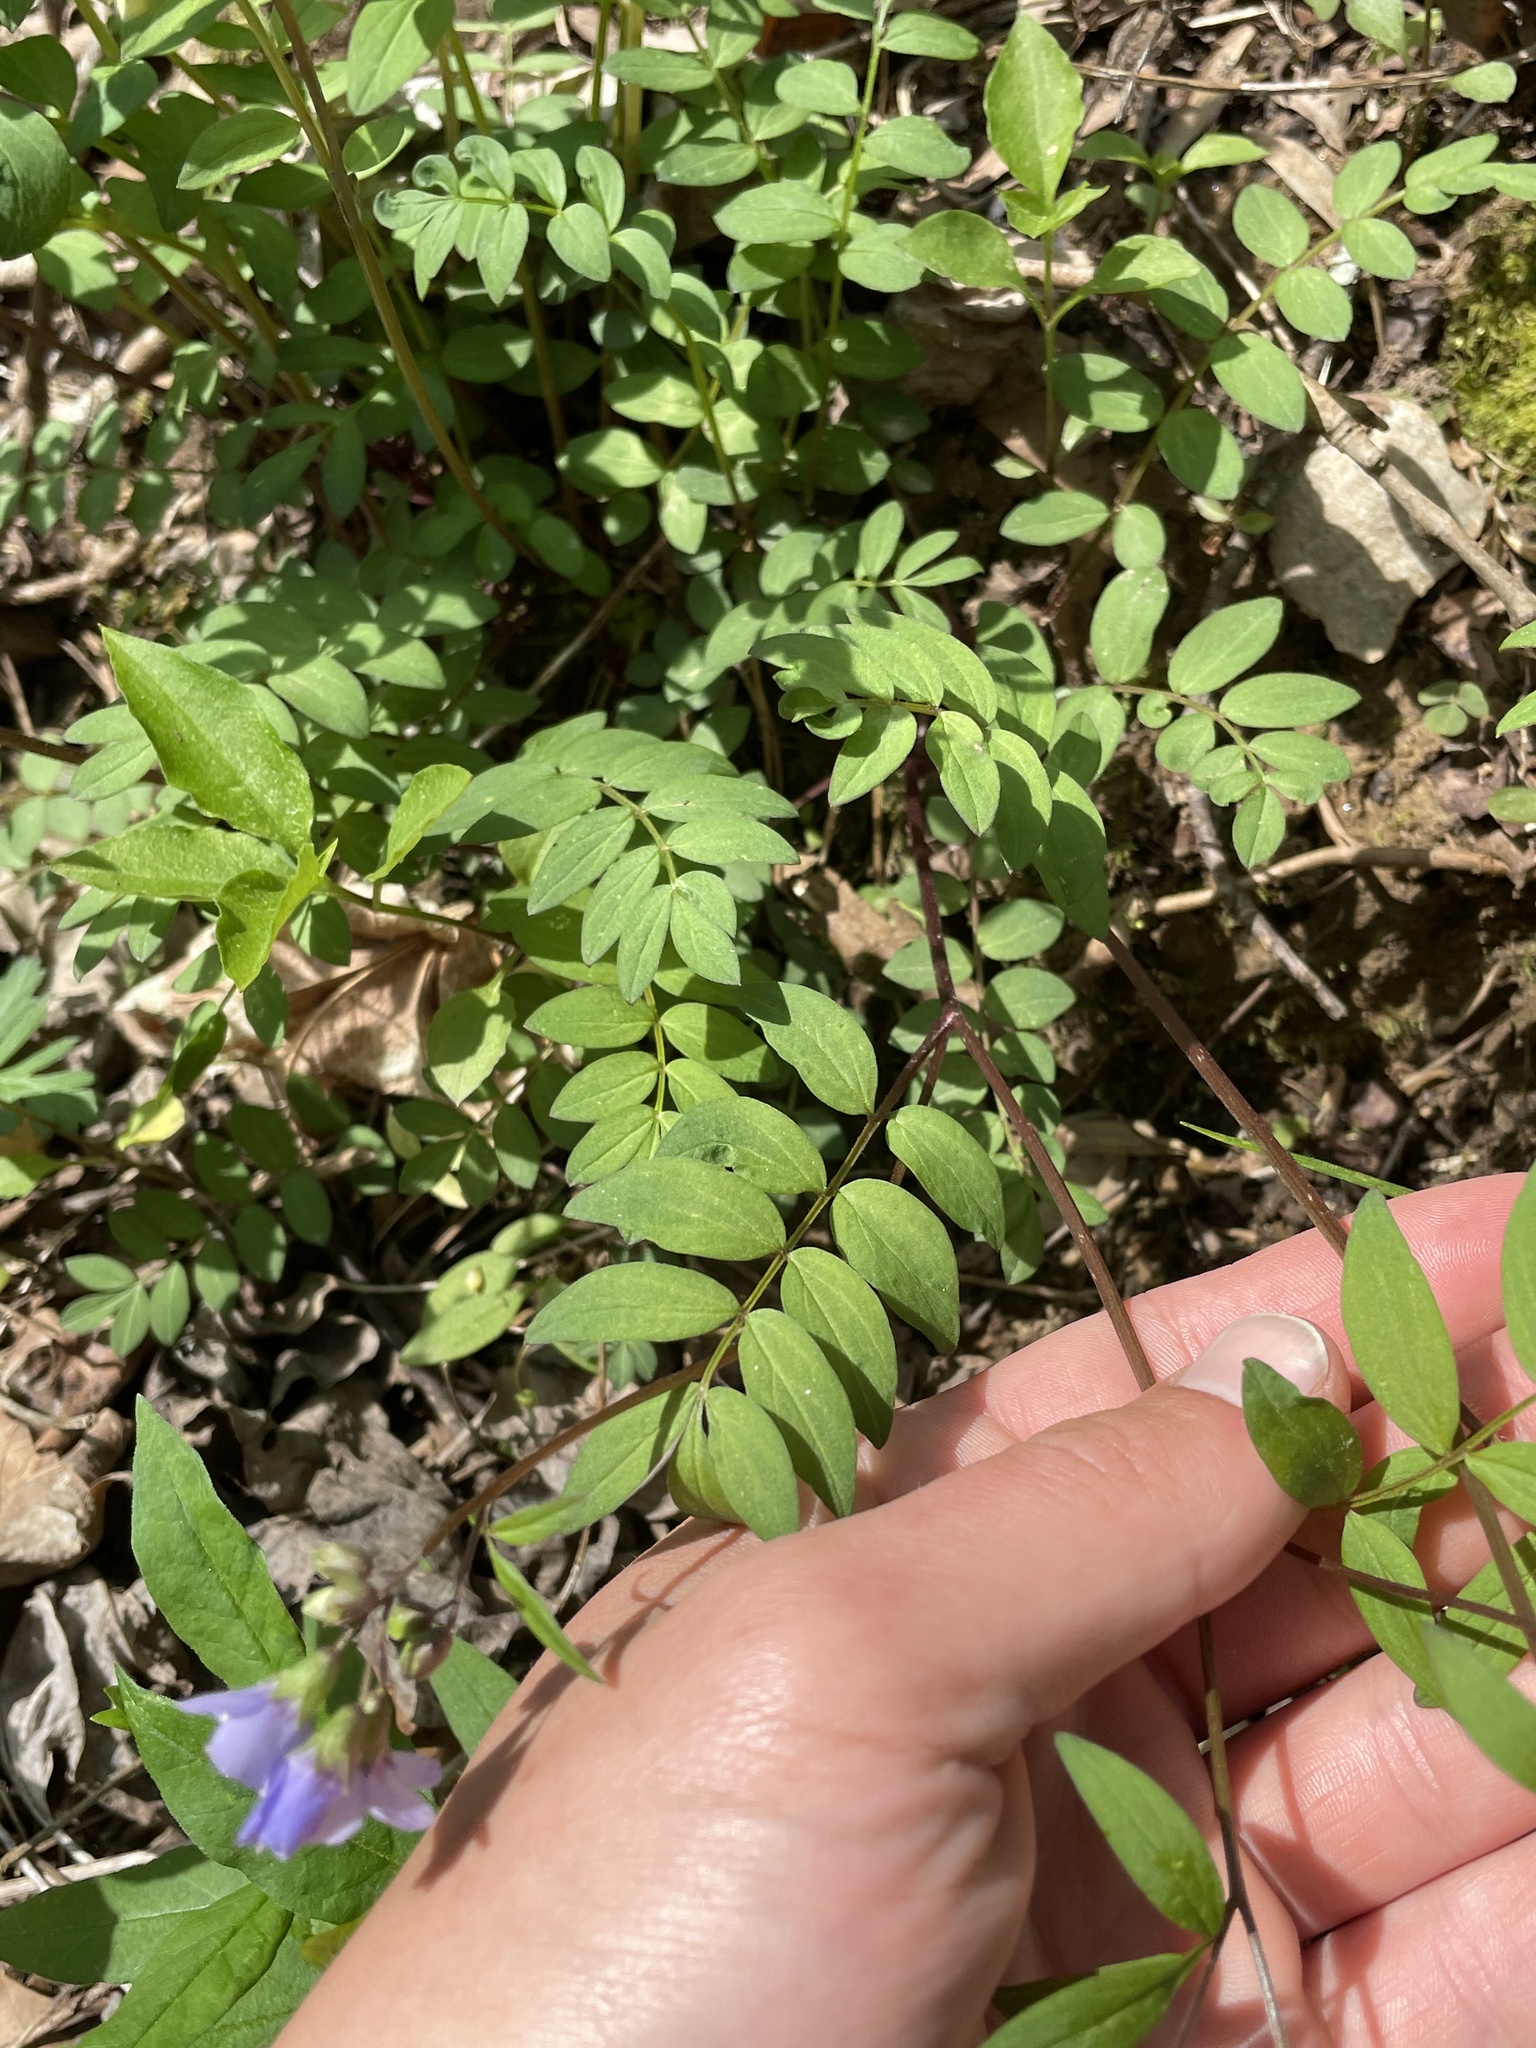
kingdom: Plantae
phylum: Tracheophyta
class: Magnoliopsida
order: Ericales
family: Polemoniaceae
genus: Polemonium
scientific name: Polemonium reptans
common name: Creeping jacob's-ladder
